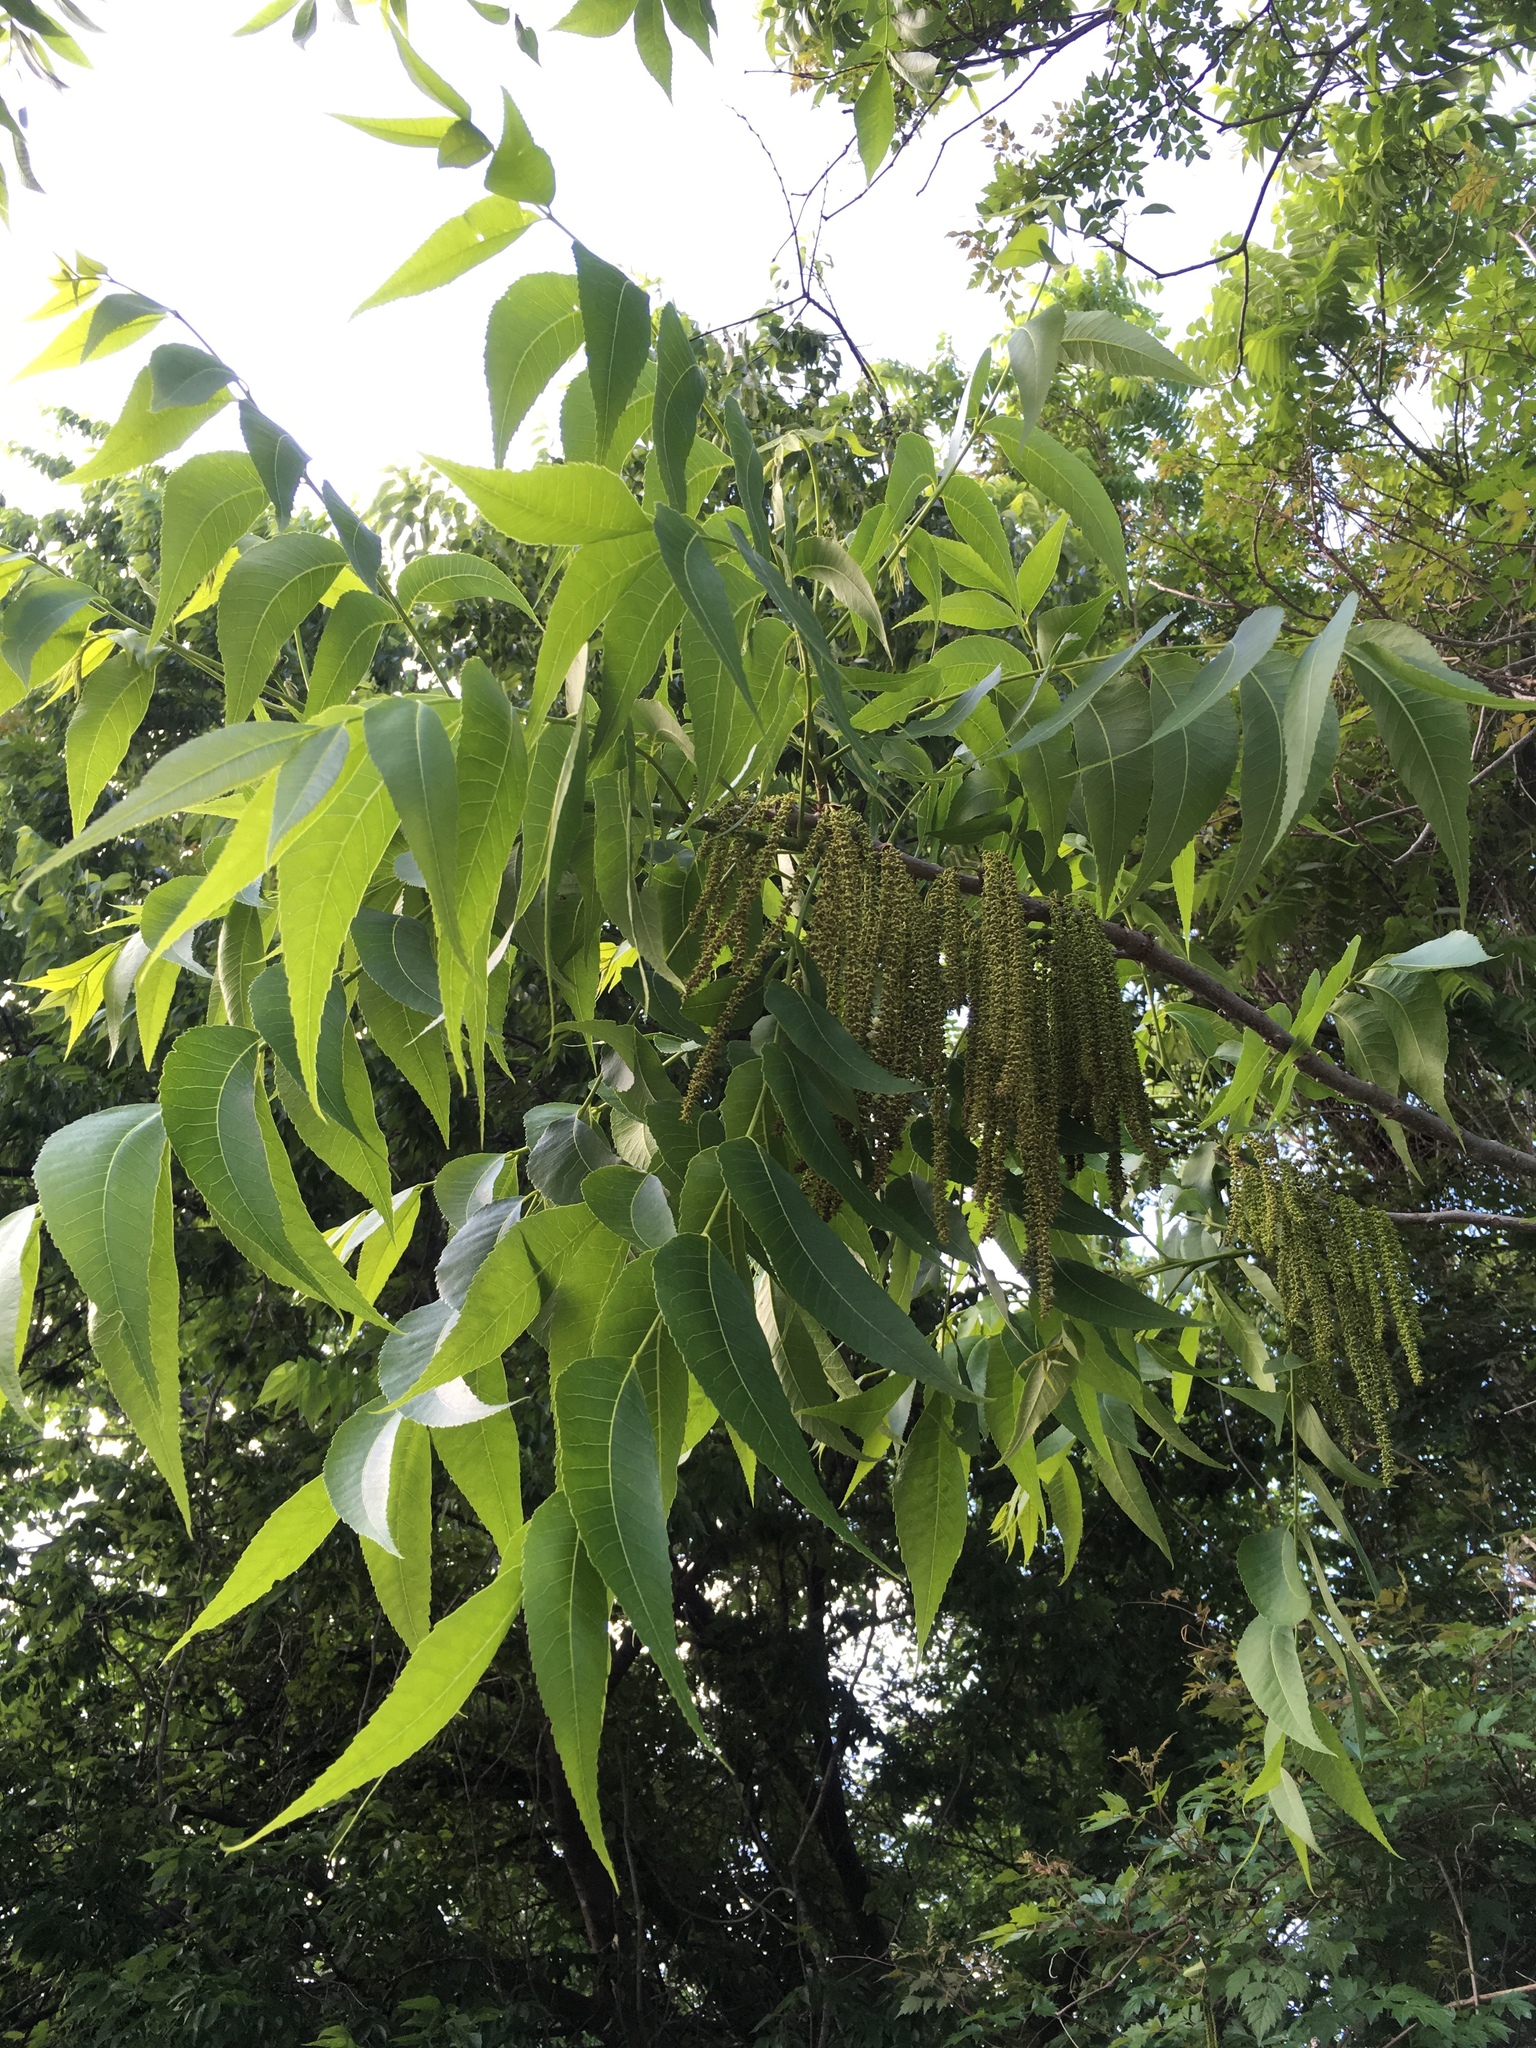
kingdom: Plantae
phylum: Tracheophyta
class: Magnoliopsida
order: Fagales
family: Juglandaceae
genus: Carya
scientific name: Carya illinoinensis
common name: Pecan
